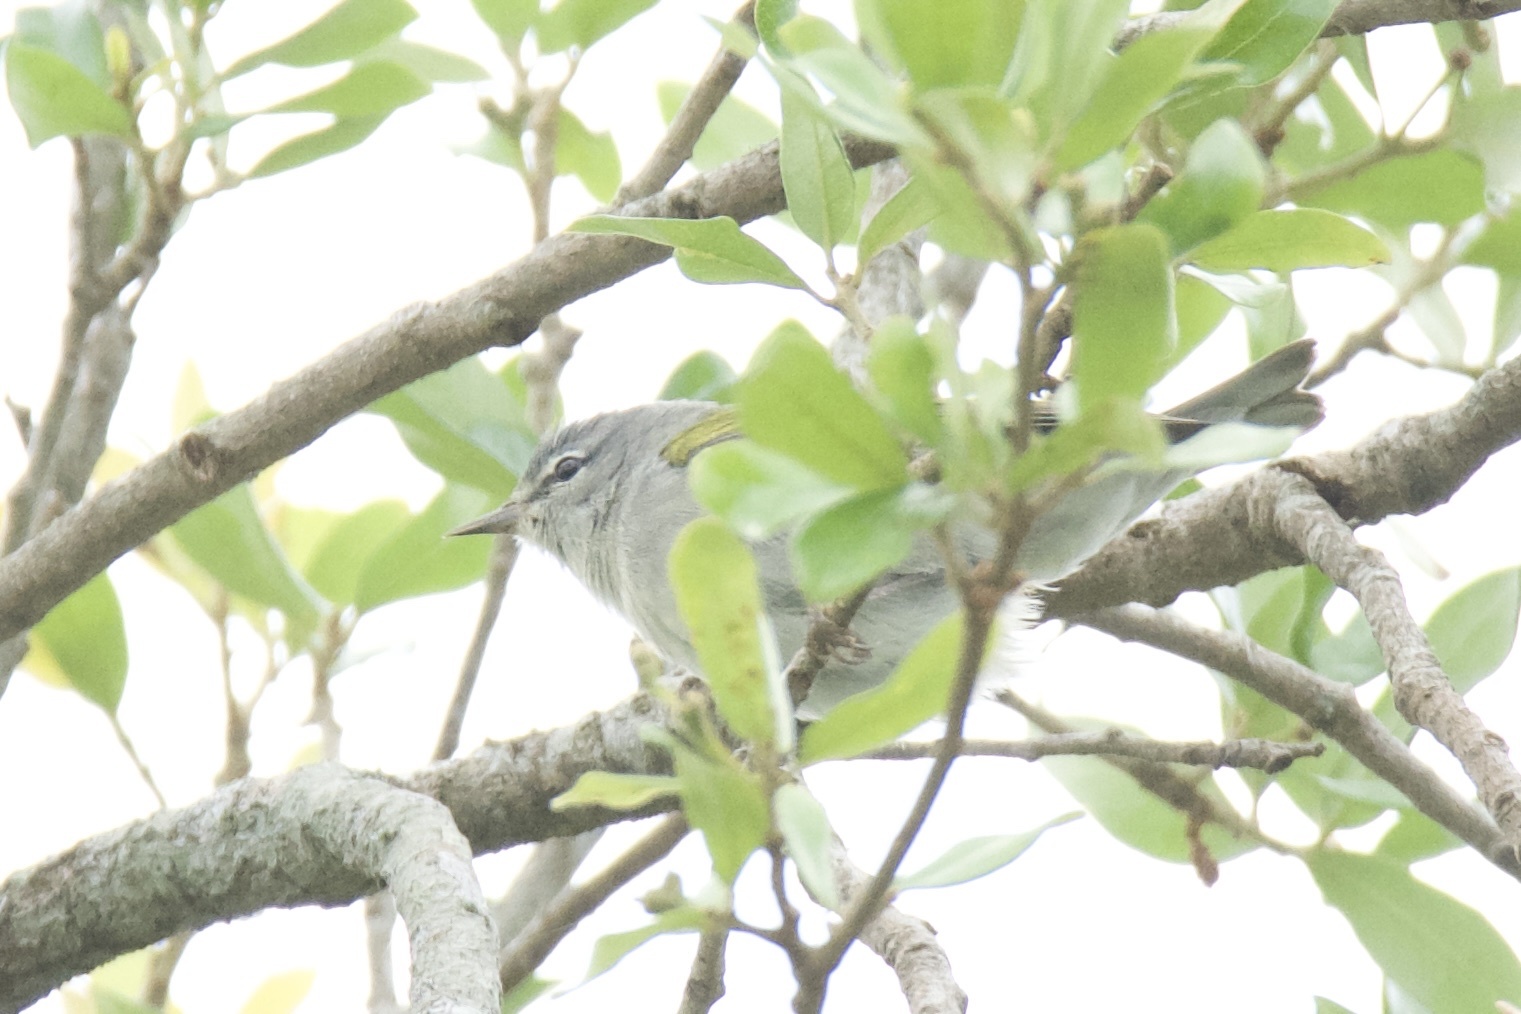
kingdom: Animalia
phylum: Chordata
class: Aves
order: Passeriformes
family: Parulidae
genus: Leiothlypis
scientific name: Leiothlypis peregrina
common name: Tennessee warbler
